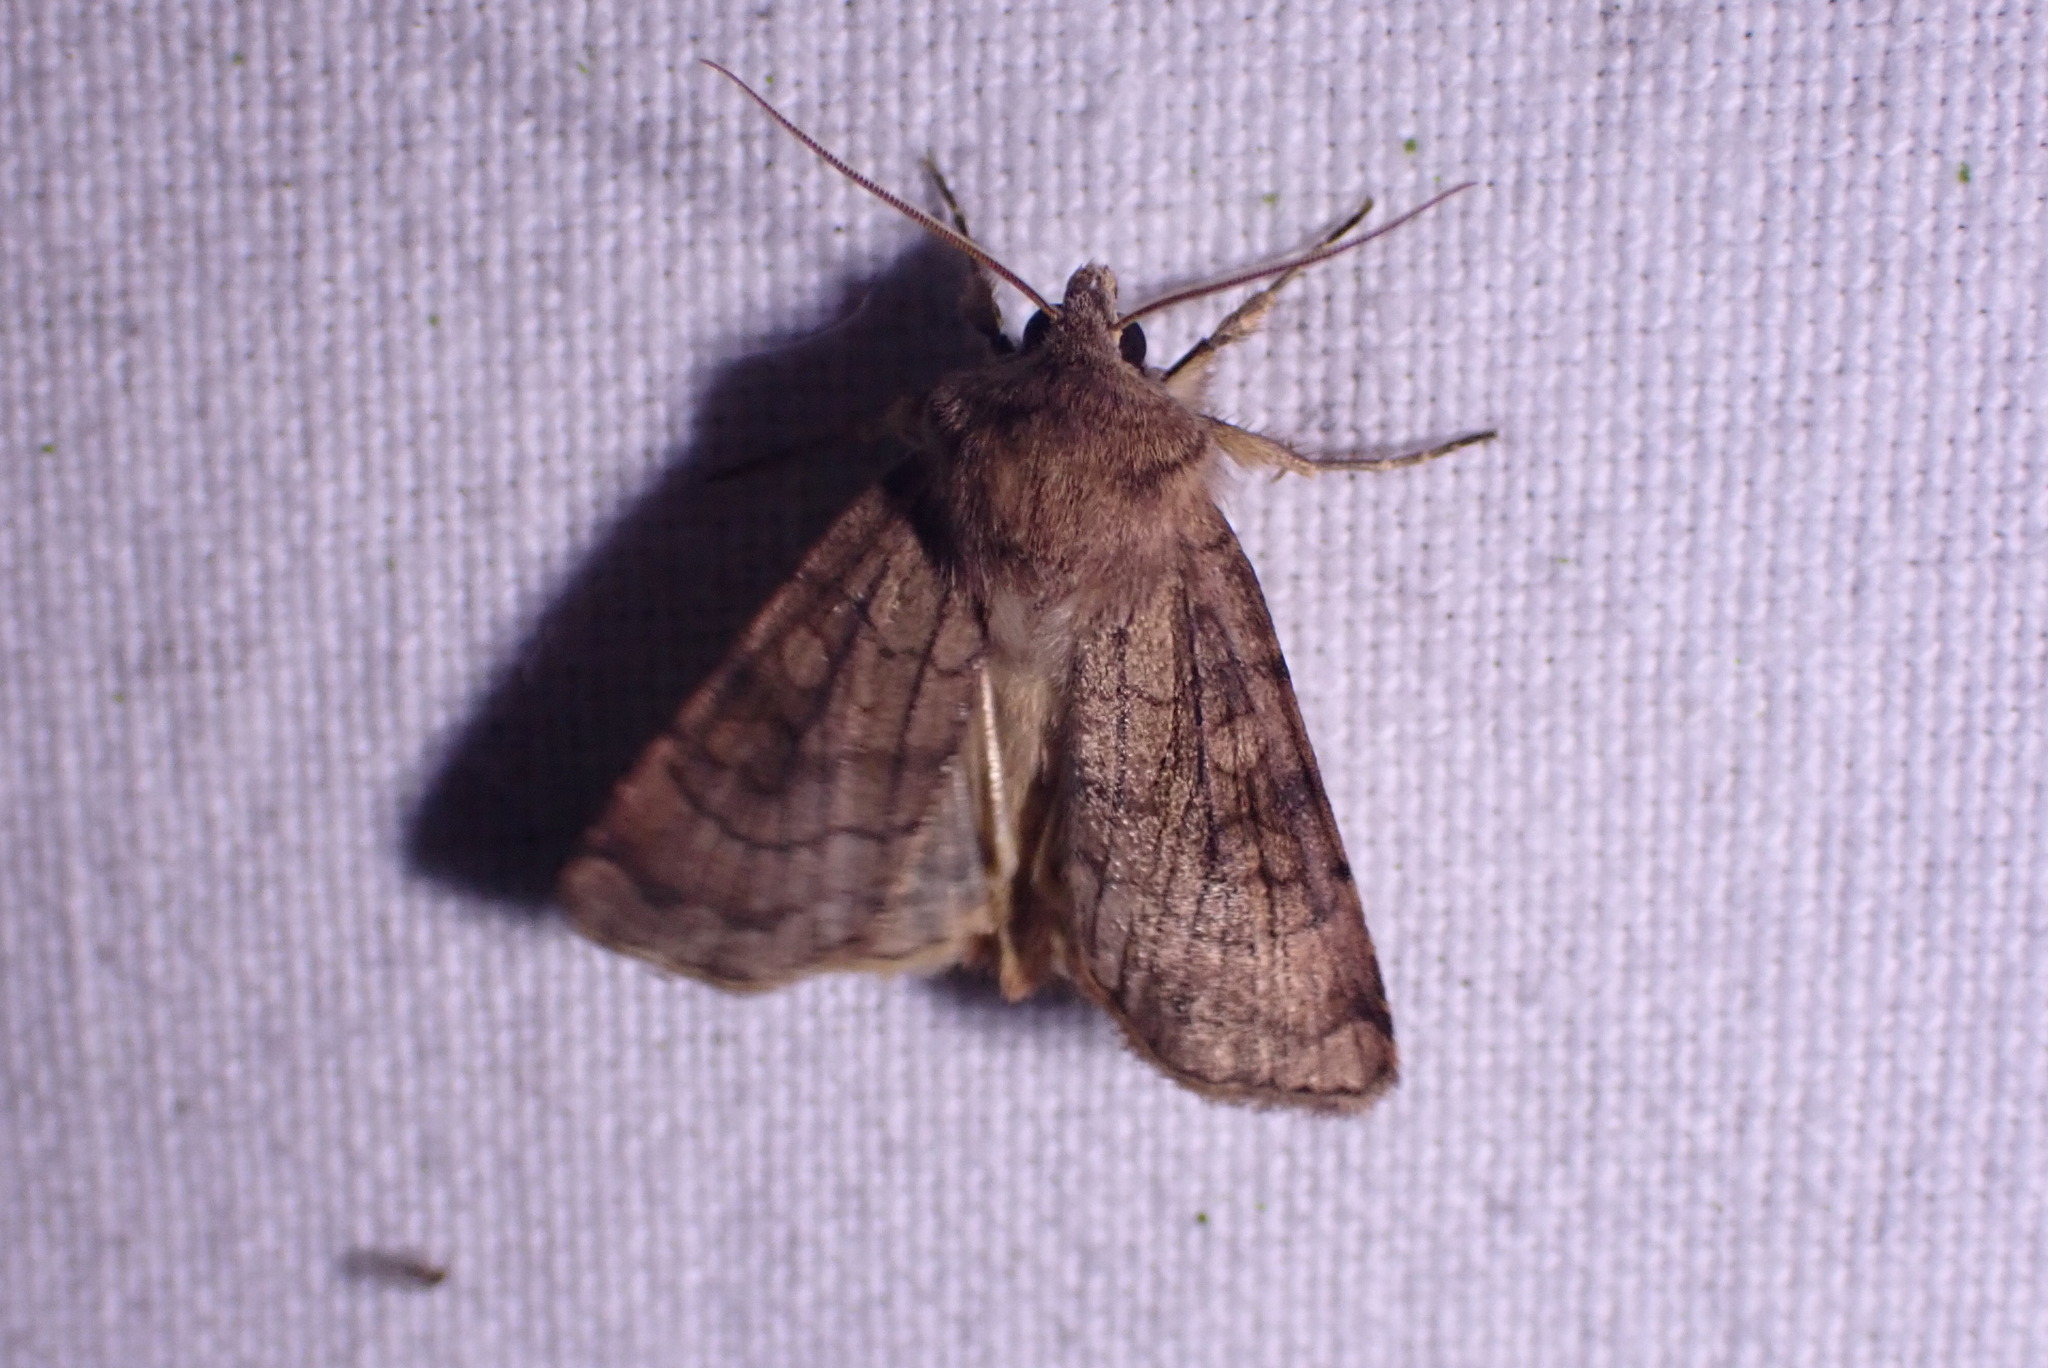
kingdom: Animalia
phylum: Arthropoda
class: Insecta
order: Lepidoptera
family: Noctuidae
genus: Xestia
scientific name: Xestia sexstrigata
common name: Six-striped rustic
